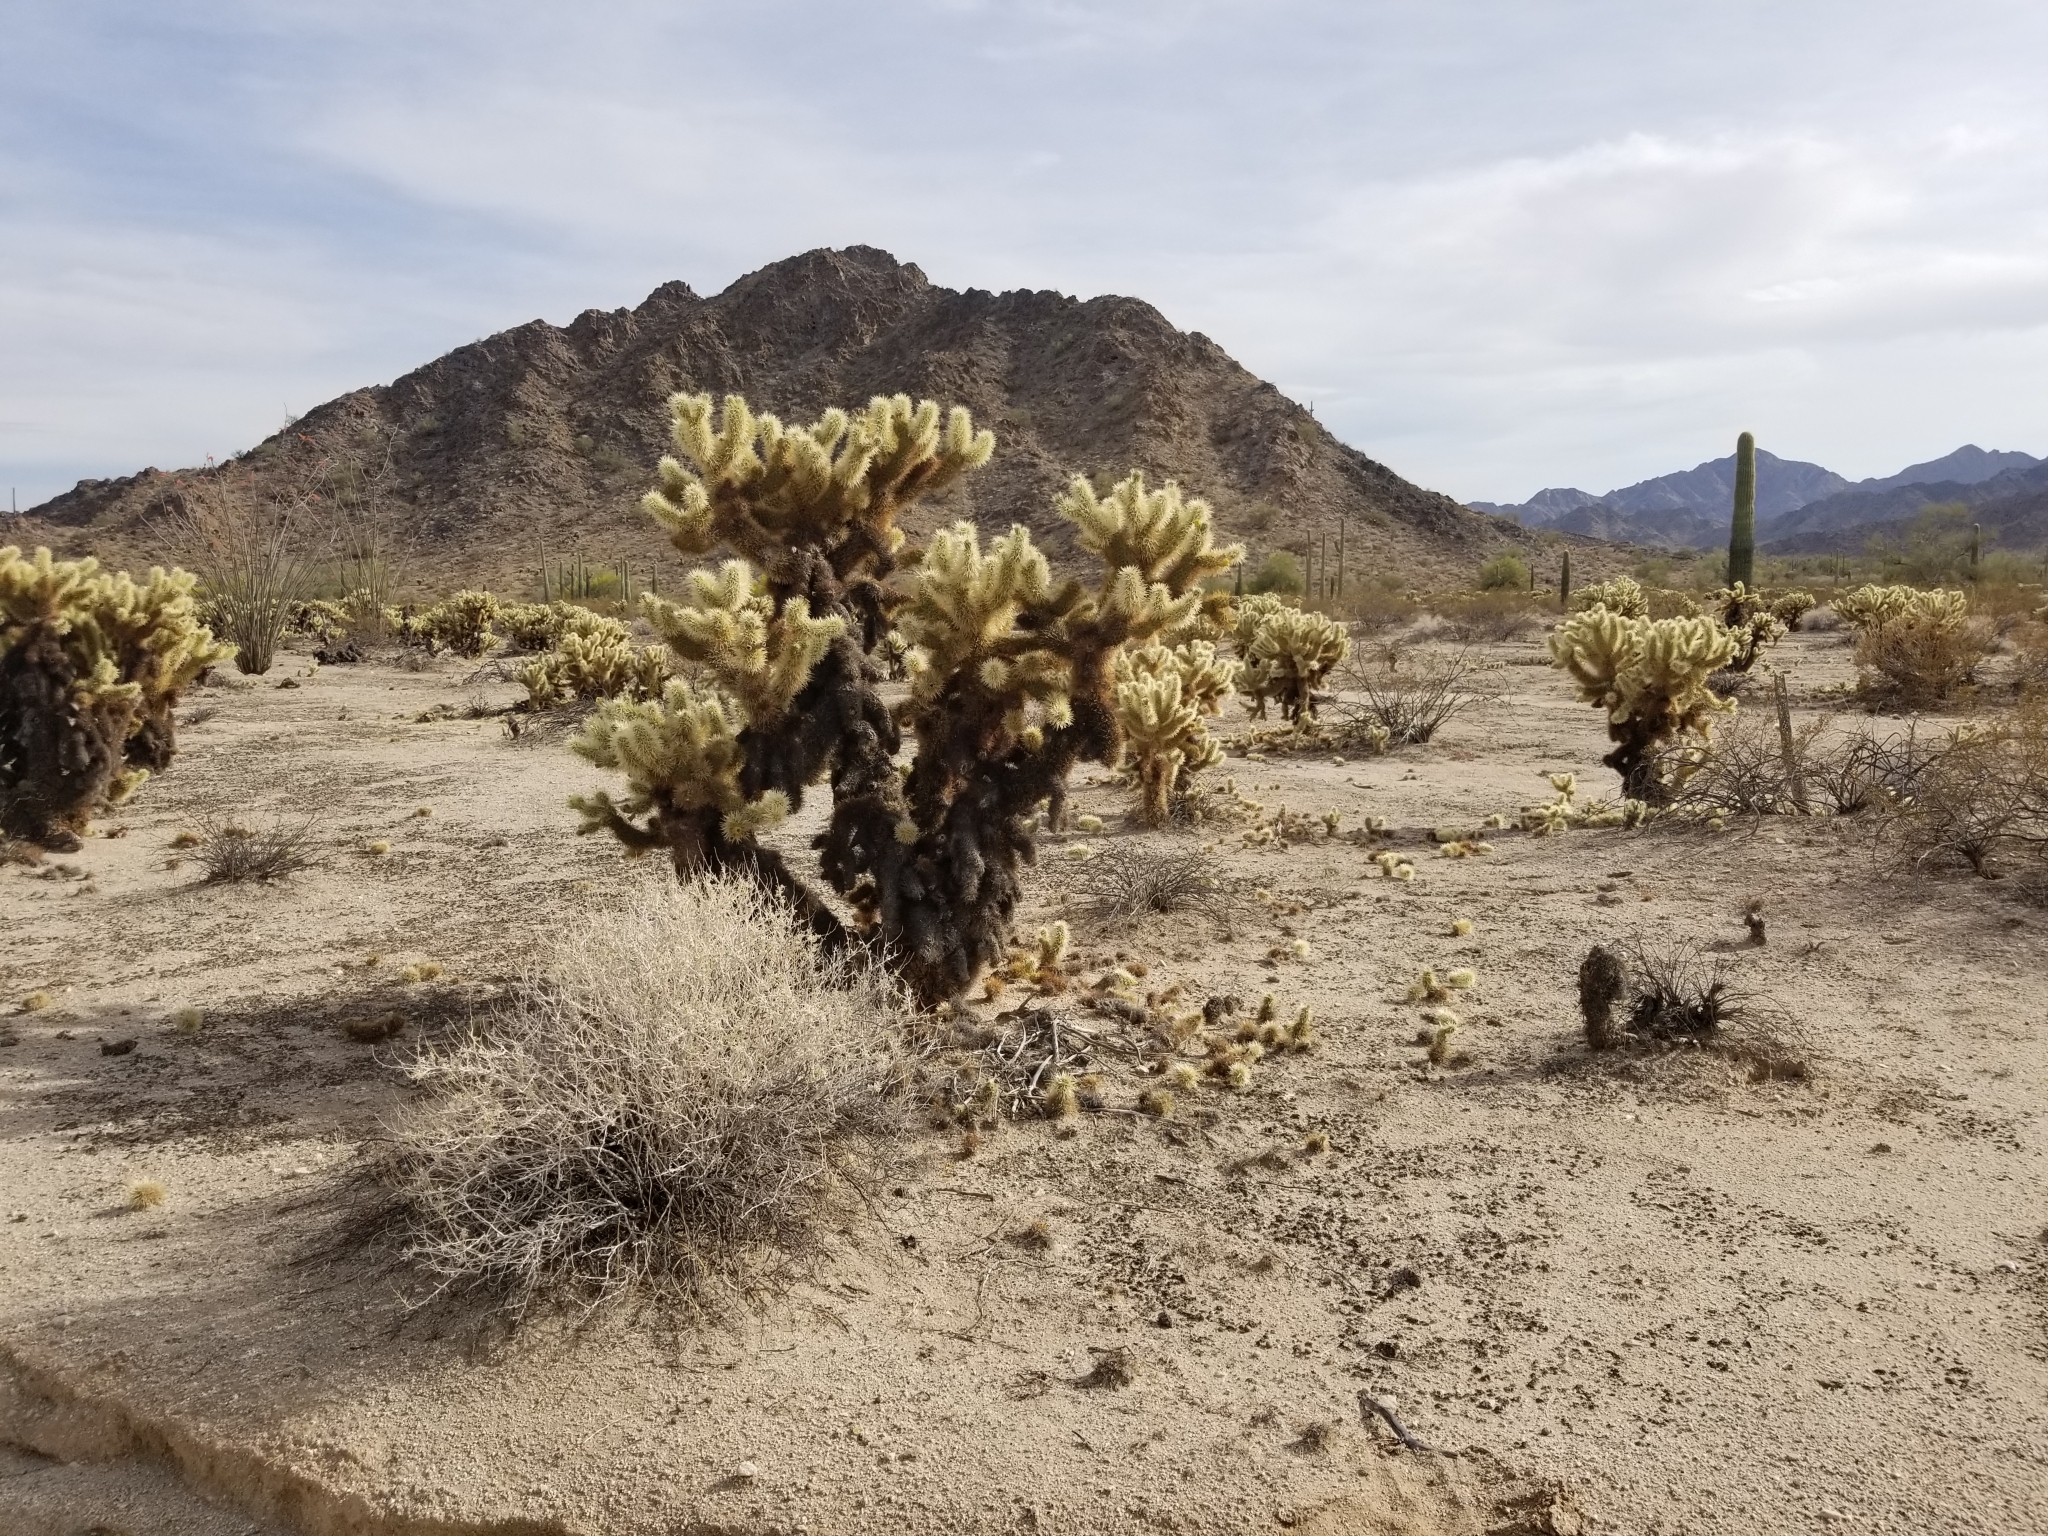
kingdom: Plantae
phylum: Tracheophyta
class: Magnoliopsida
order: Caryophyllales
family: Cactaceae
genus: Cylindropuntia
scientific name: Cylindropuntia fosbergii
